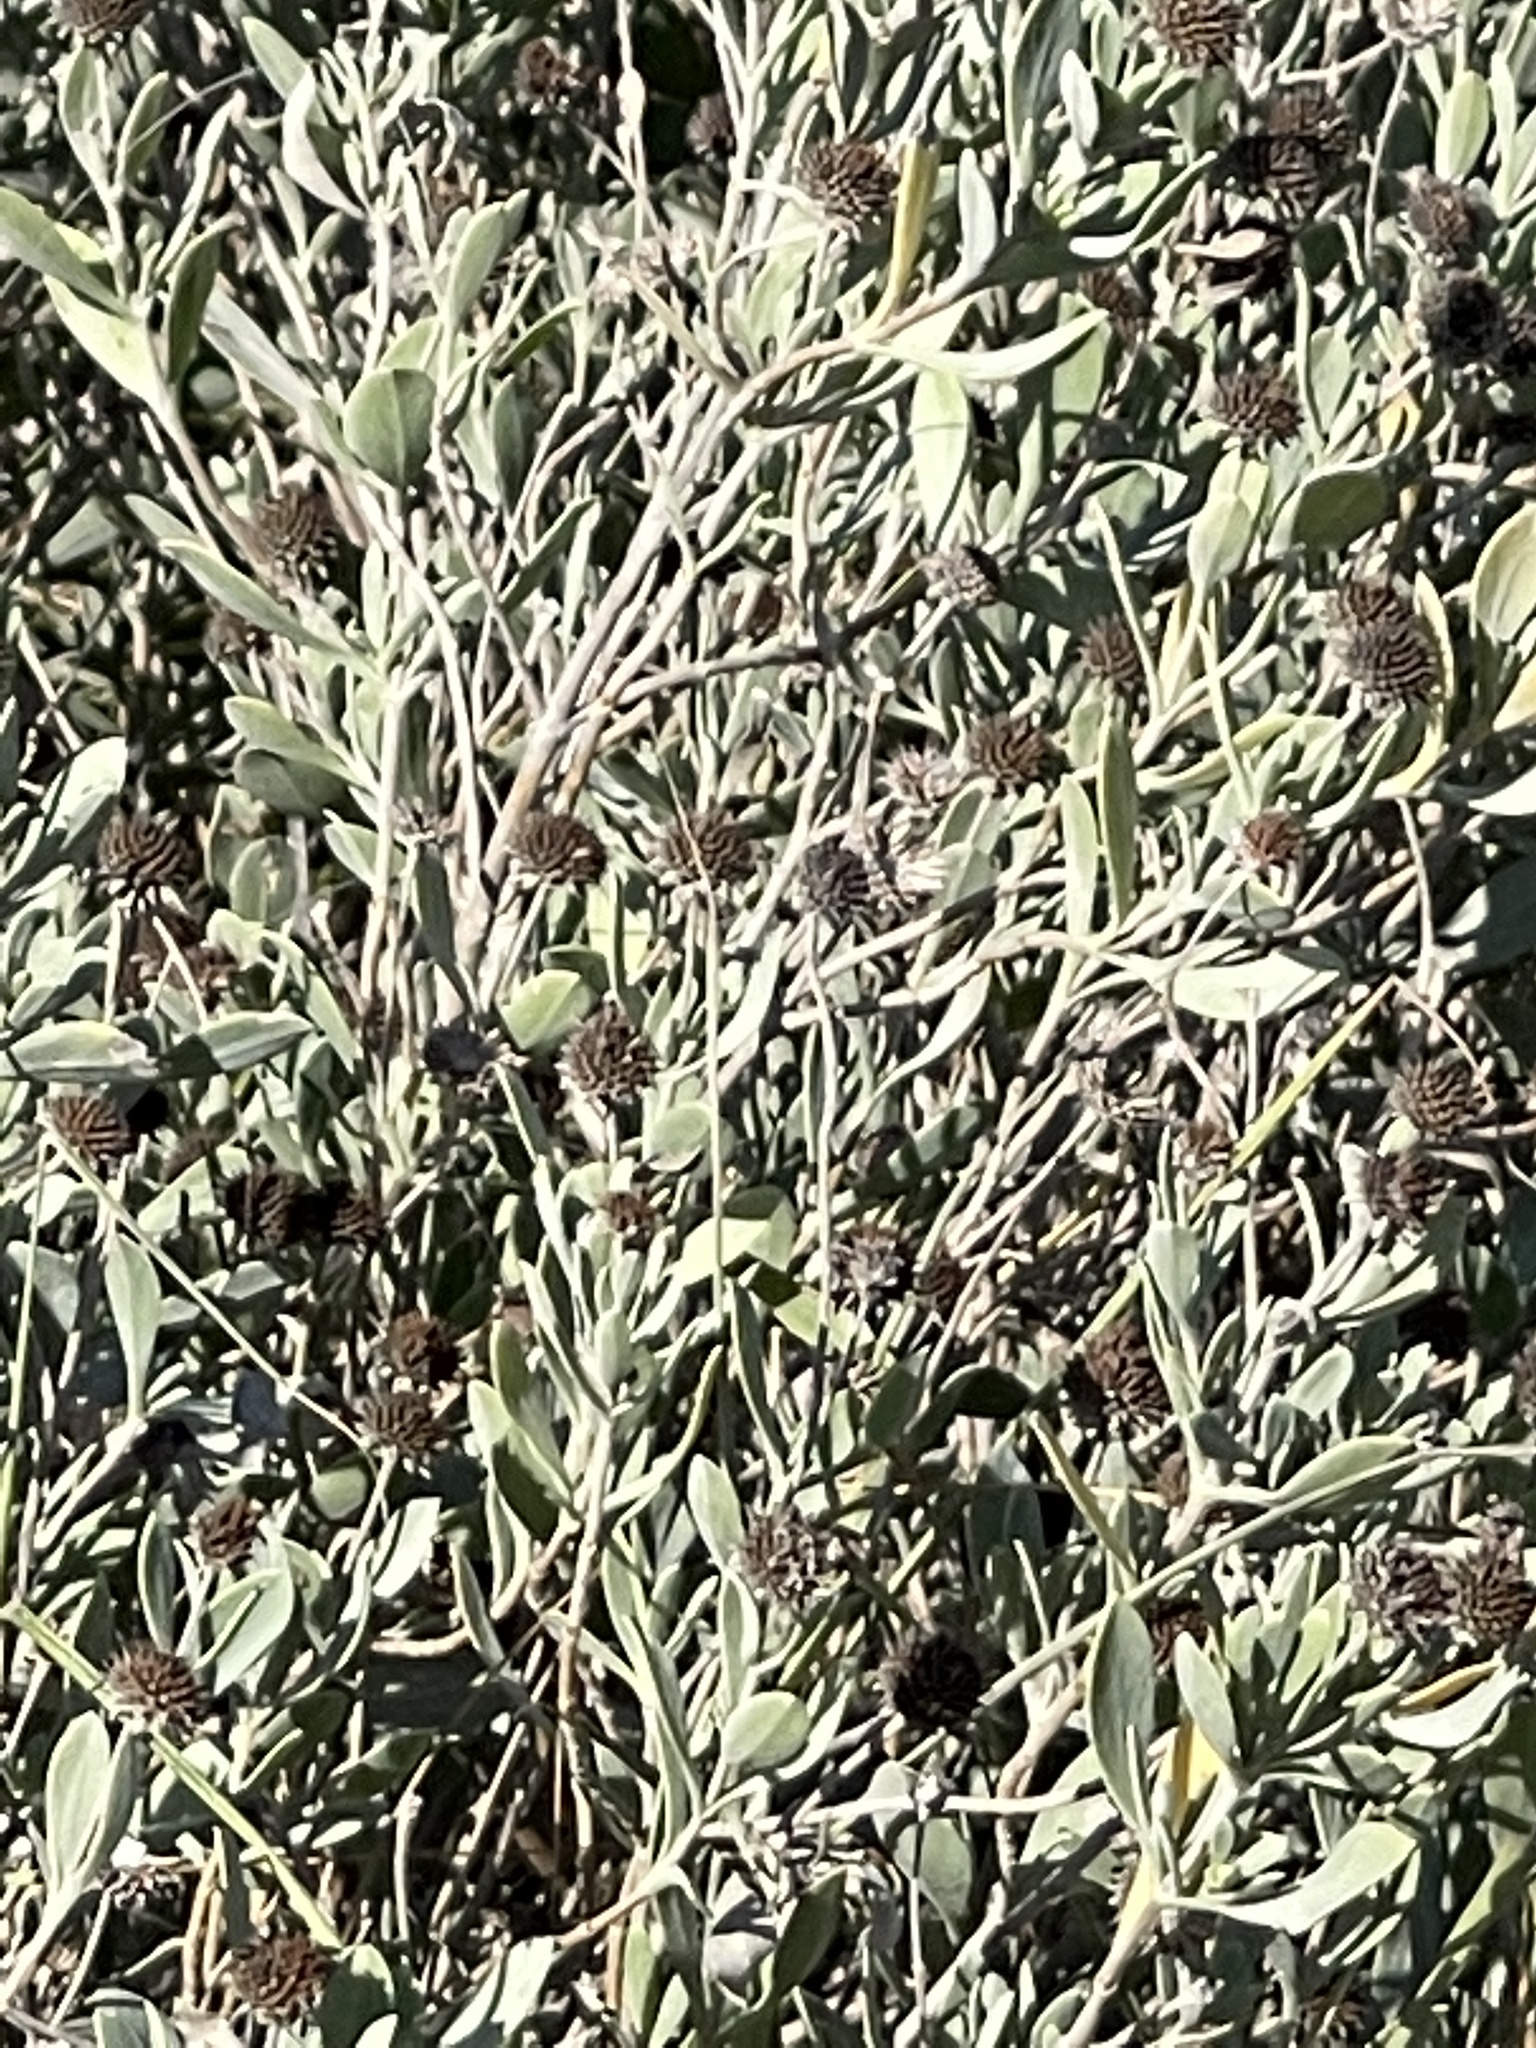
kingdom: Plantae
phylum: Tracheophyta
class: Magnoliopsida
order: Asterales
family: Asteraceae
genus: Borrichia
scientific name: Borrichia frutescens
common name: Sea oxeye
